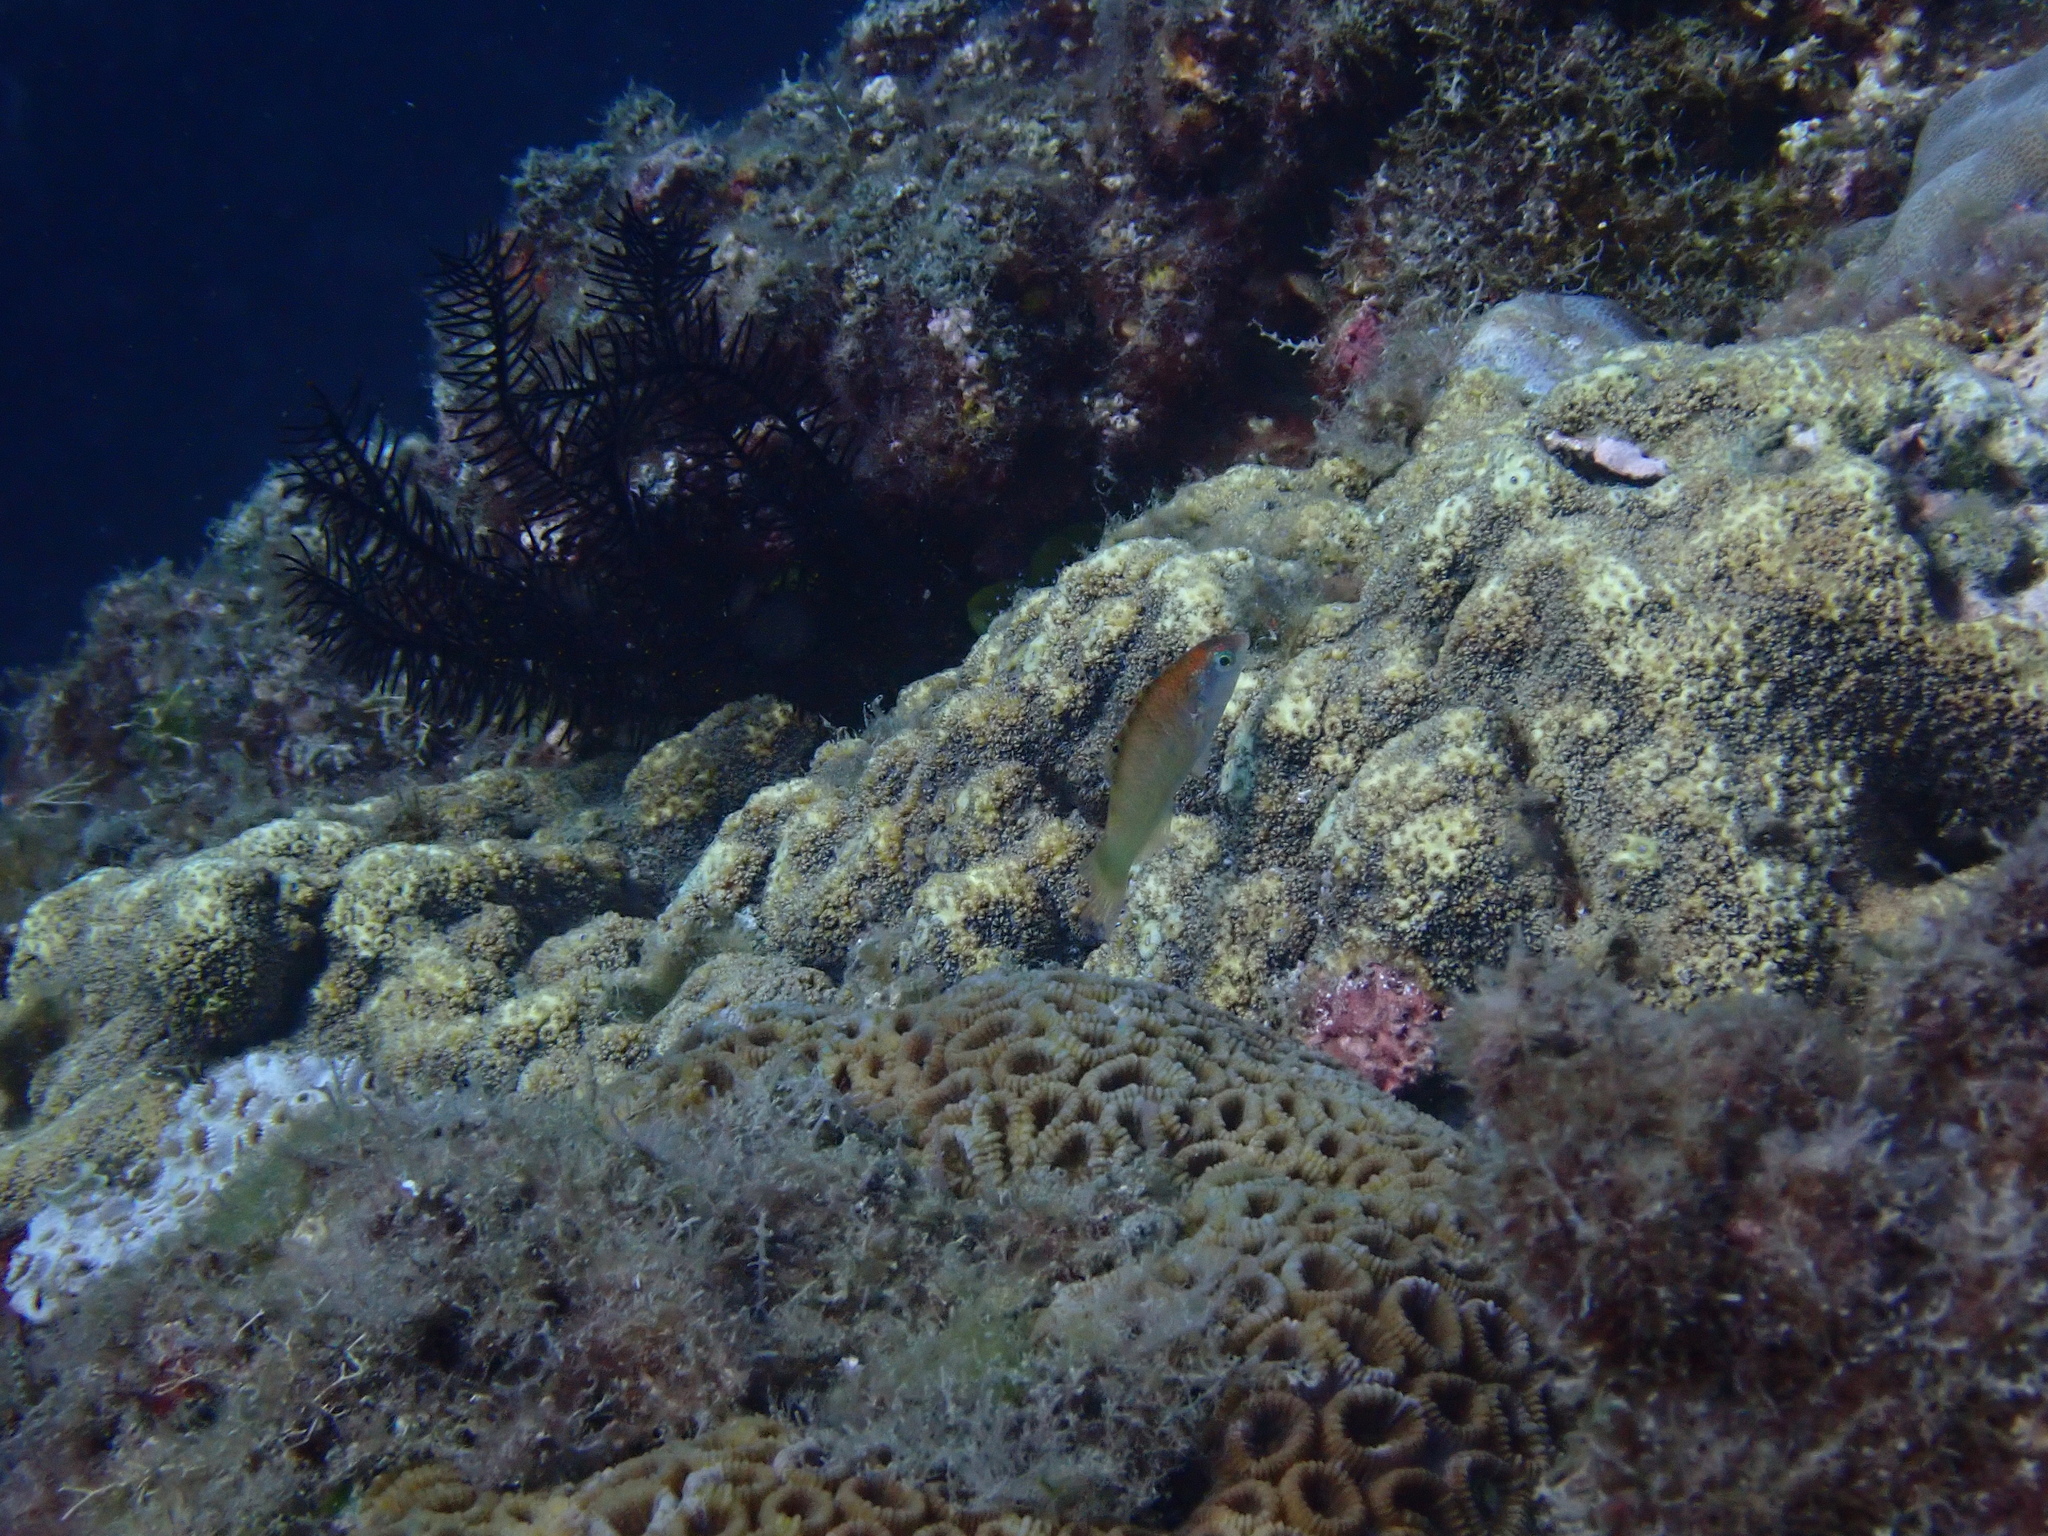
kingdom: Animalia
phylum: Chordata
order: Perciformes
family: Labridae
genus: Thalassoma
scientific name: Thalassoma hardwicke
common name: Sixbar wrasse
